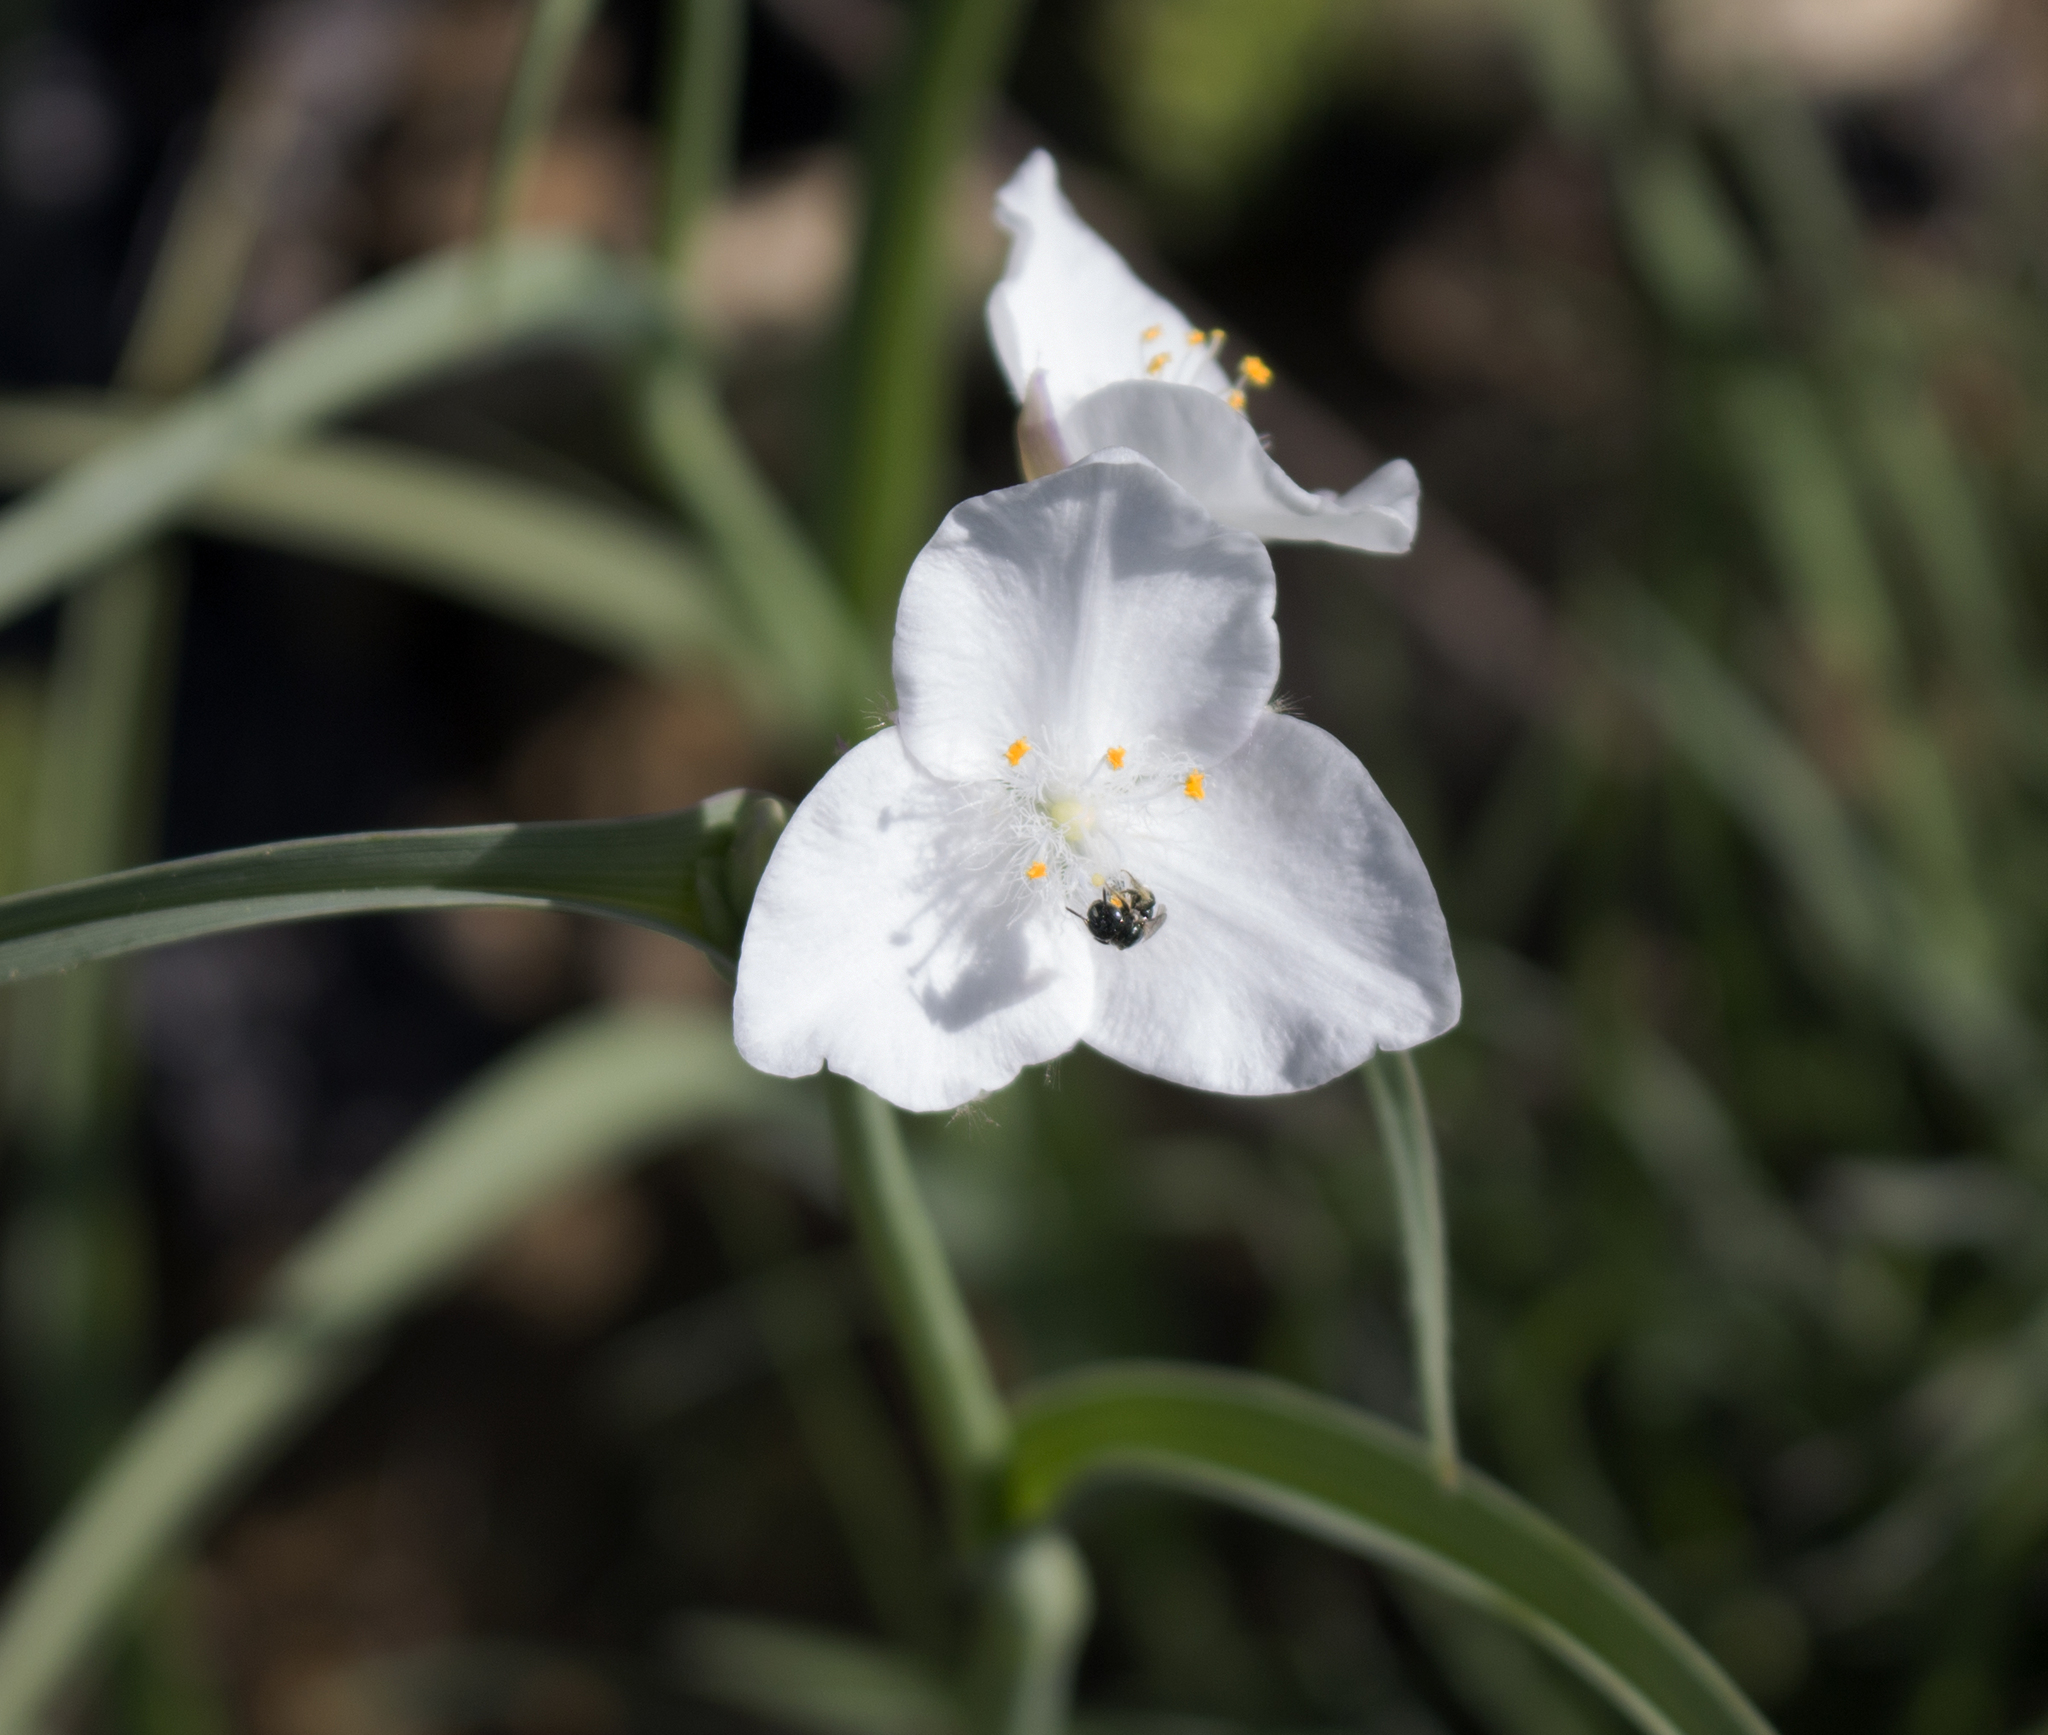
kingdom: Plantae
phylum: Tracheophyta
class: Liliopsida
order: Commelinales
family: Commelinaceae
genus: Tradescantia
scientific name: Tradescantia ohiensis
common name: Ohio spiderwort
